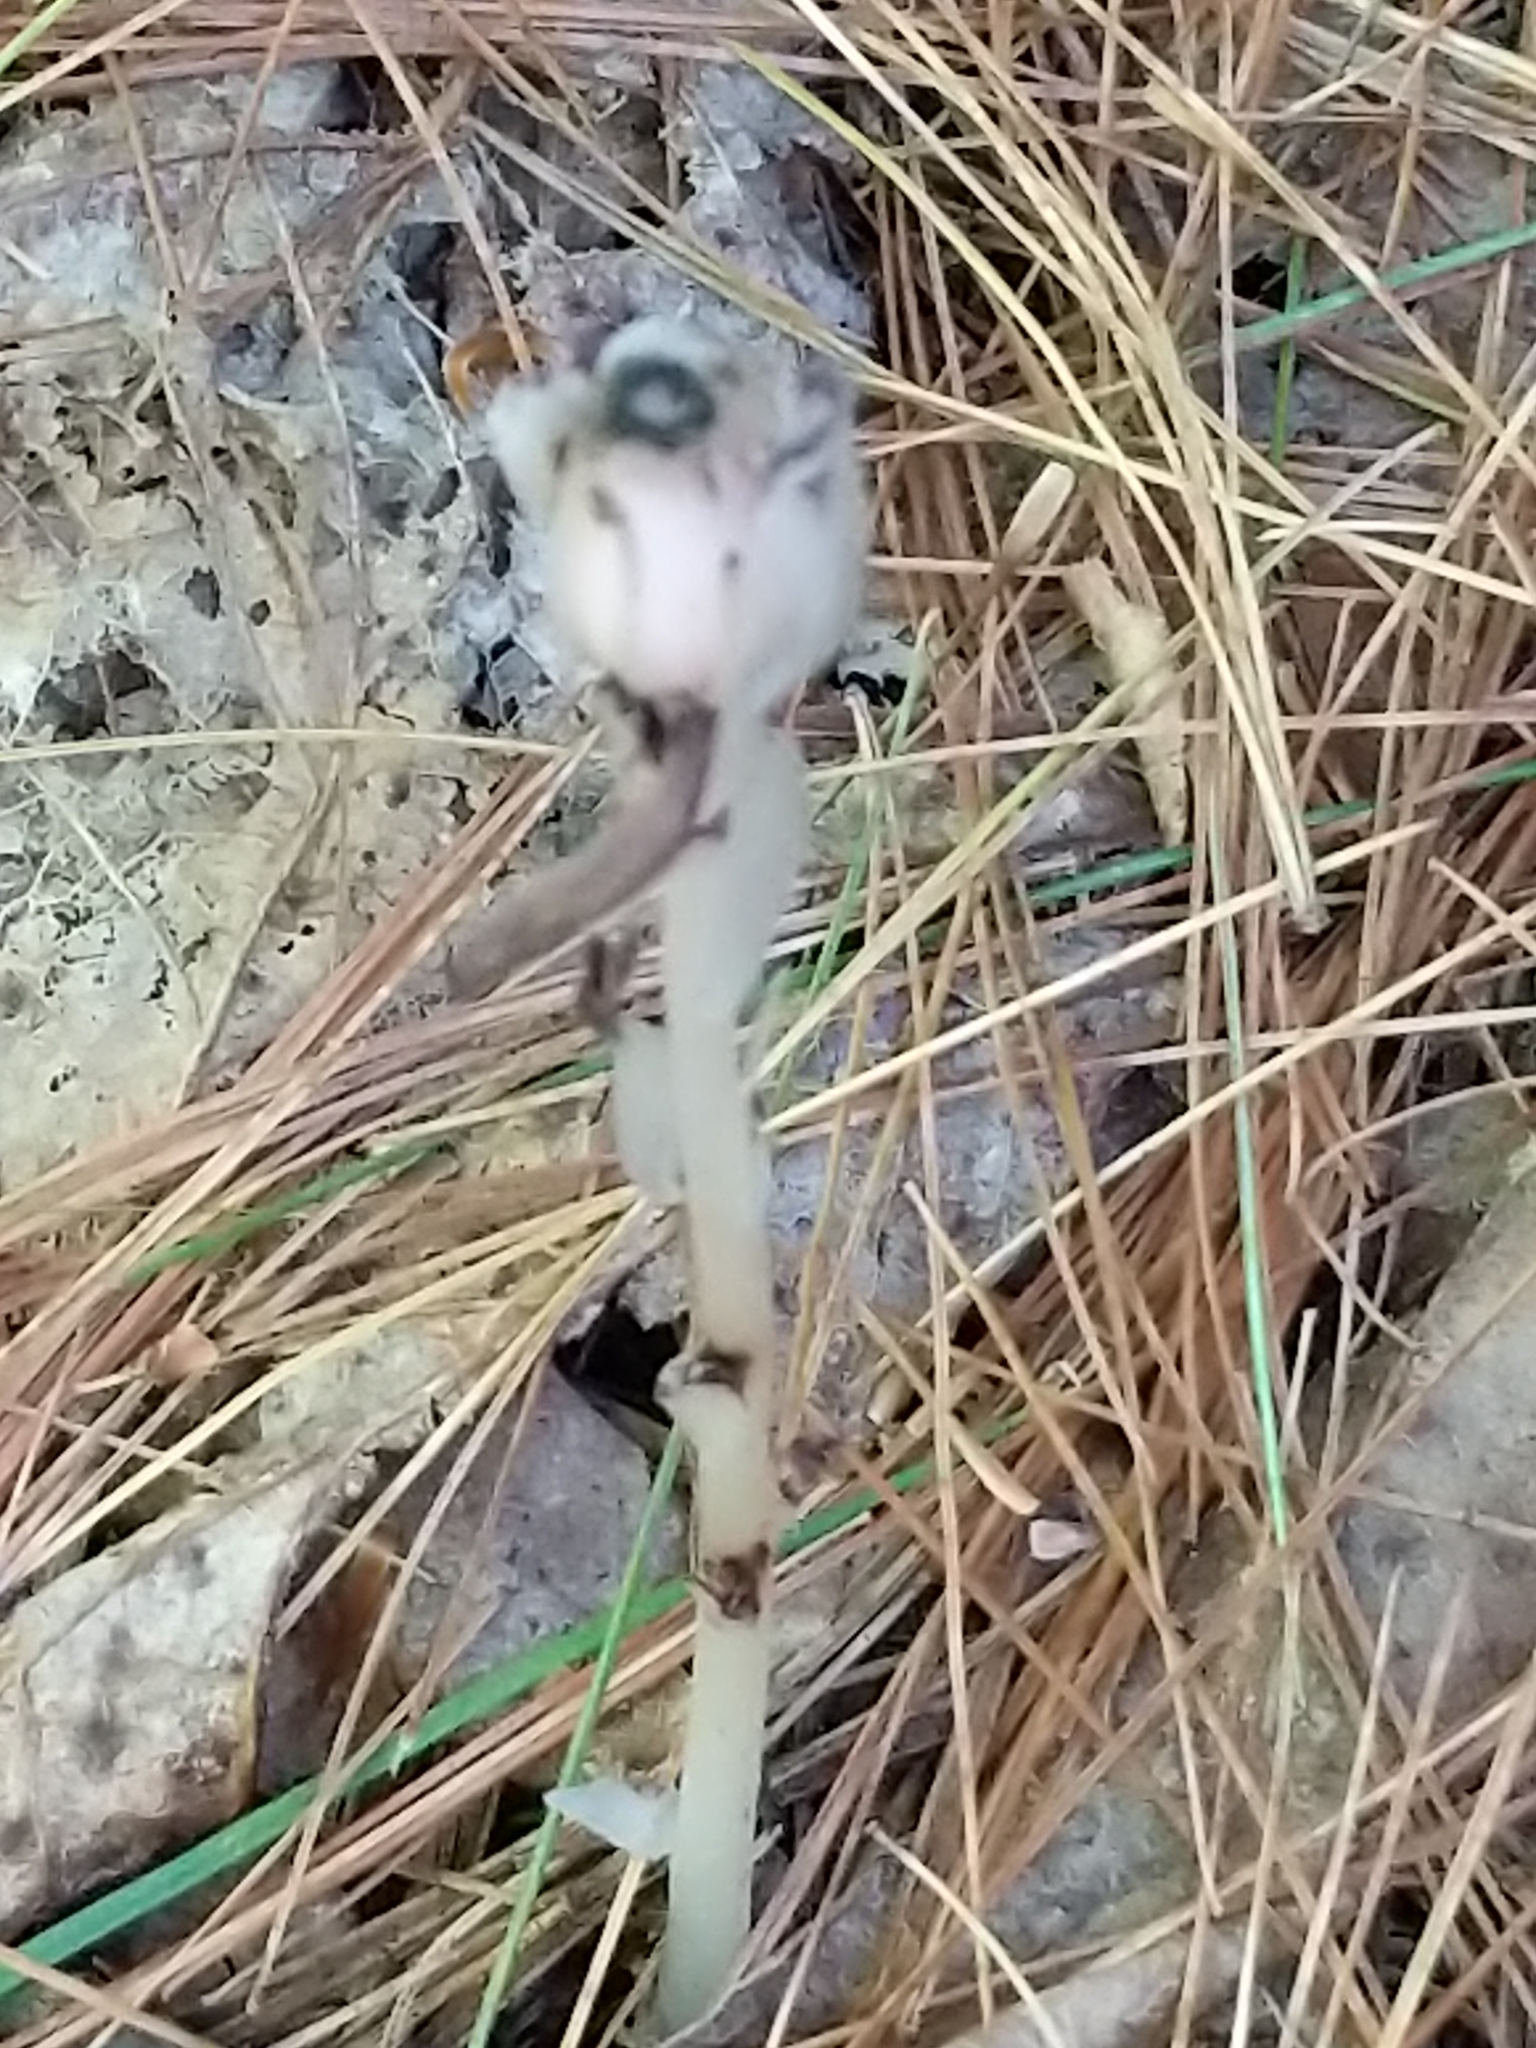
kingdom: Plantae
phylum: Tracheophyta
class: Magnoliopsida
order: Ericales
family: Ericaceae
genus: Monotropa
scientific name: Monotropa uniflora
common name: Convulsion root
